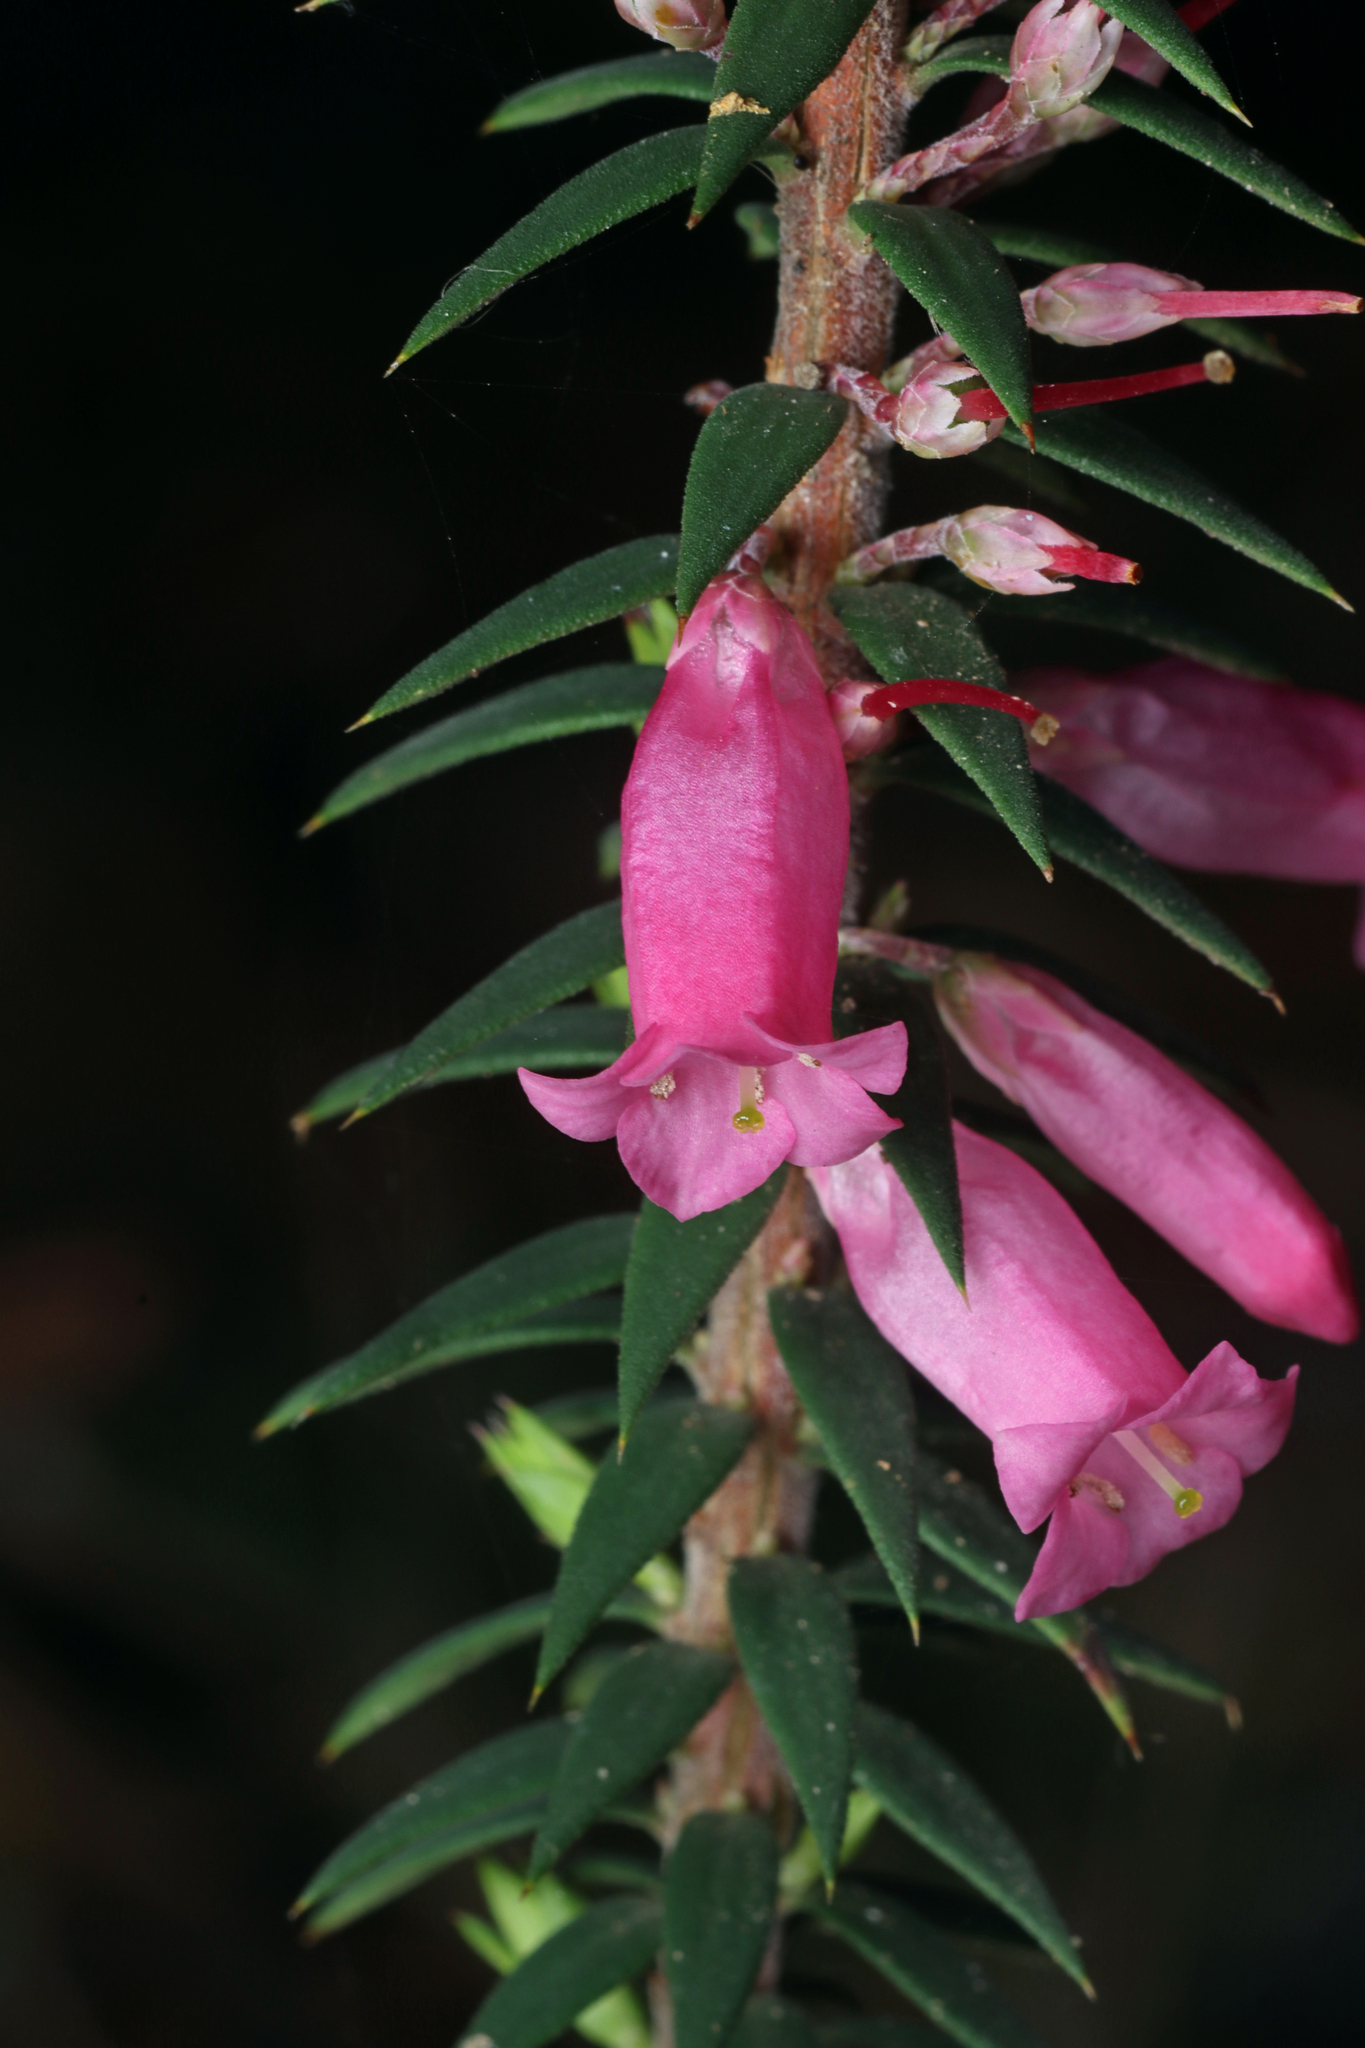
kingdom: Plantae
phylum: Tracheophyta
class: Magnoliopsida
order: Ericales
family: Ericaceae
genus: Epacris
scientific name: Epacris impressa
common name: Common-heath
